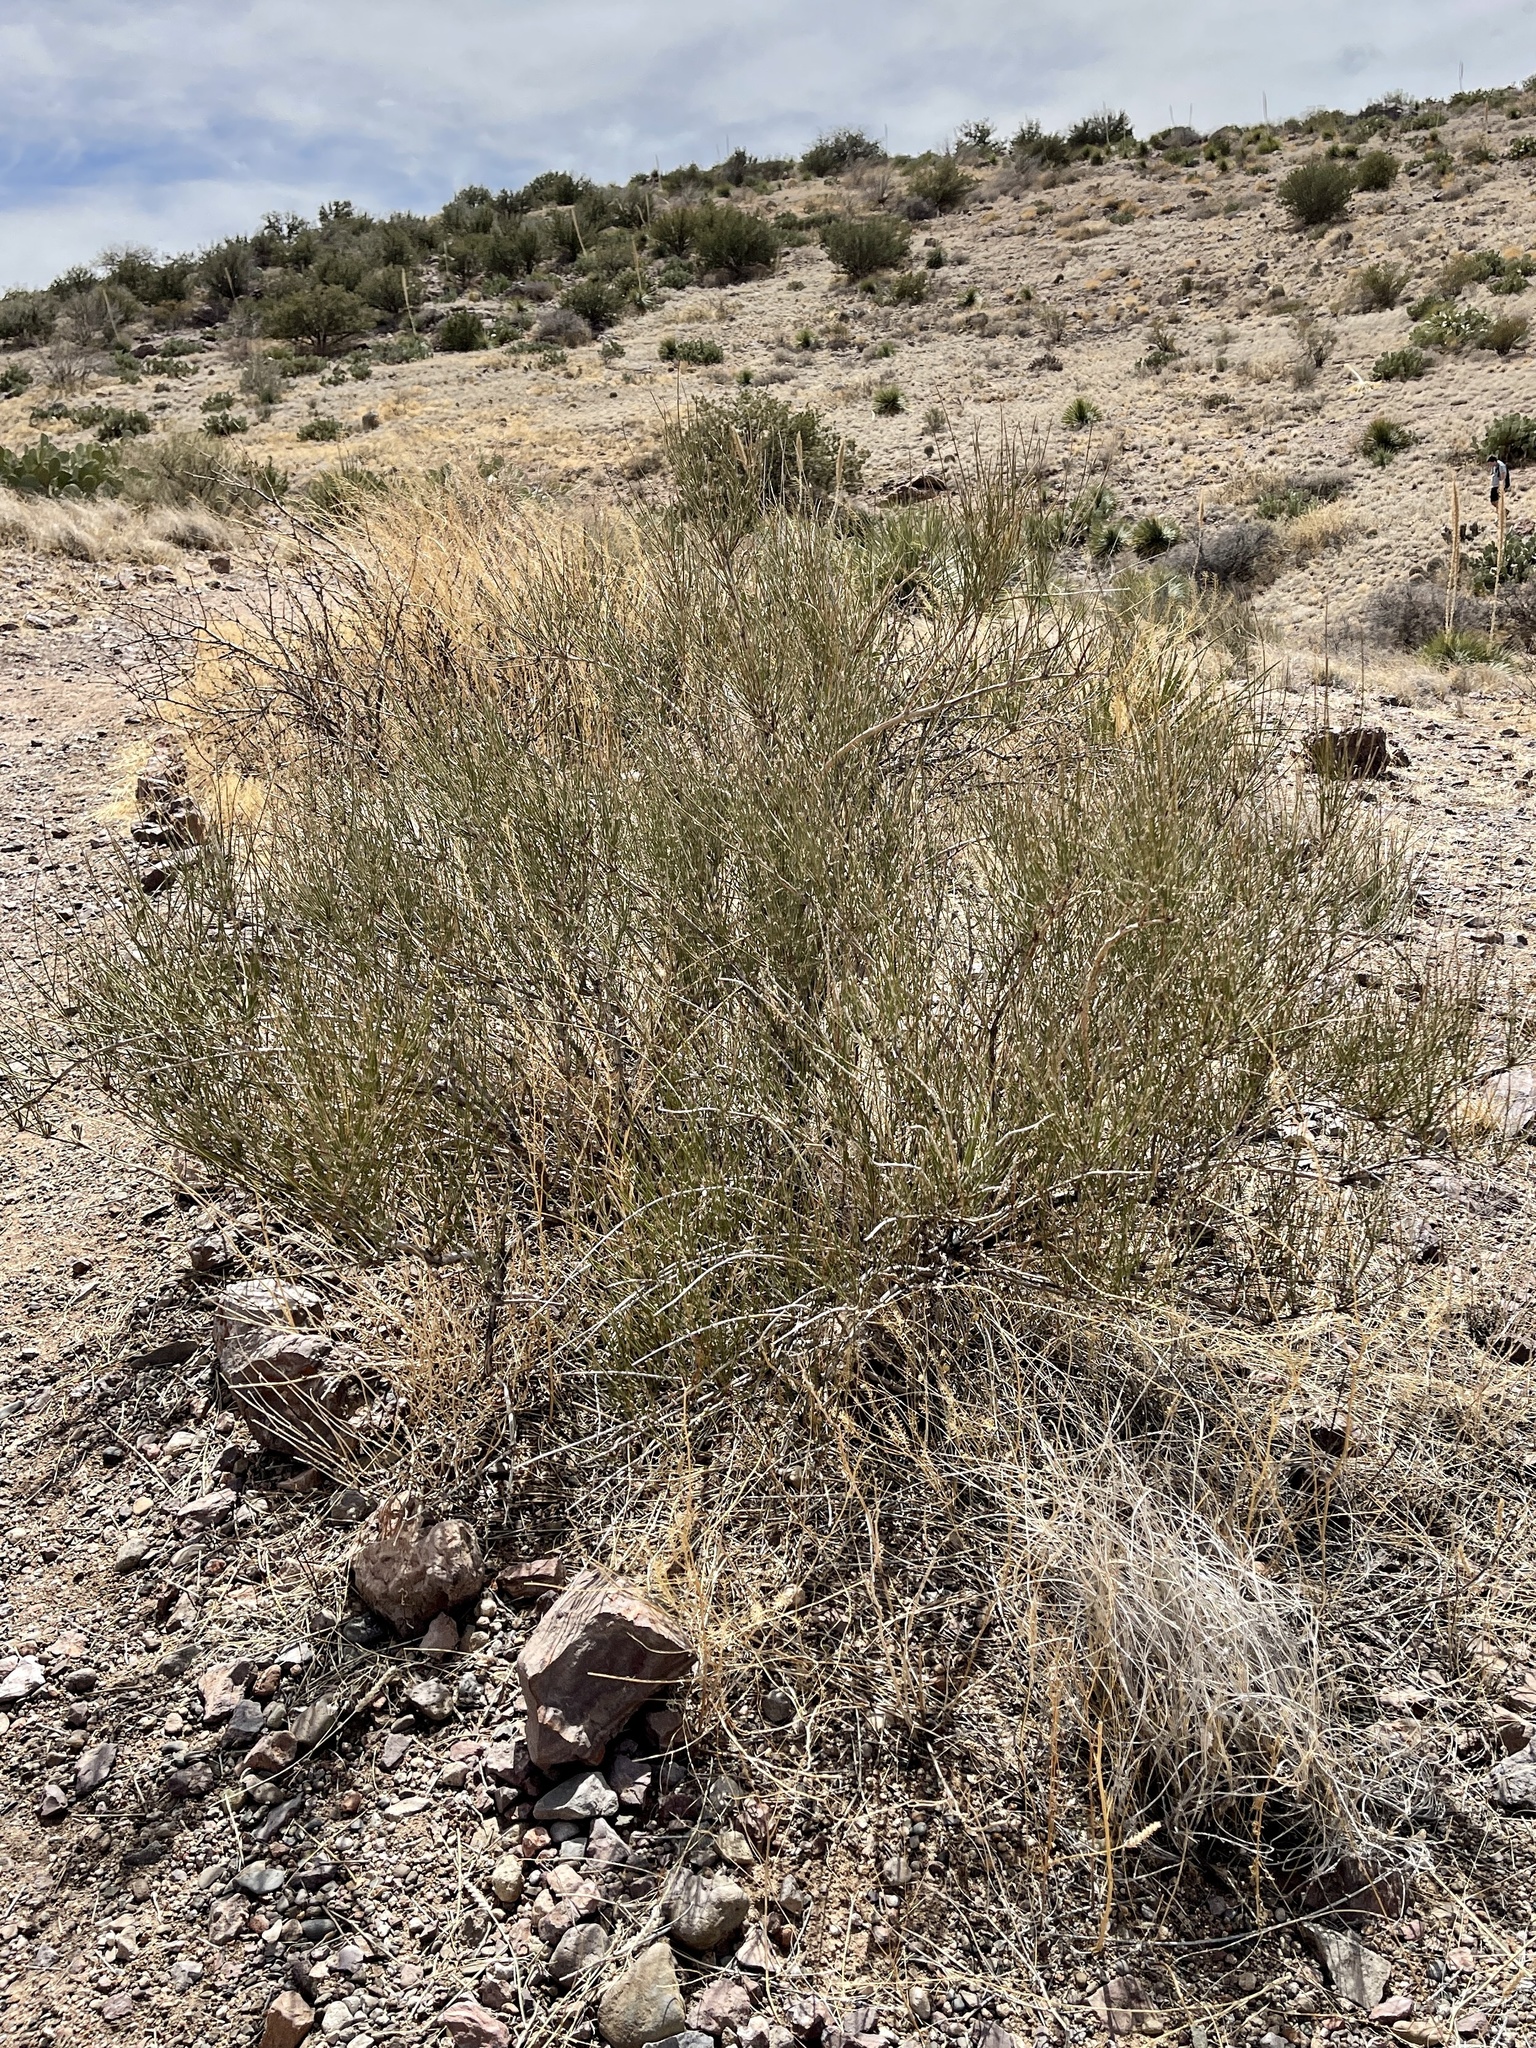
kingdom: Plantae
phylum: Tracheophyta
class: Gnetopsida
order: Ephedrales
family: Ephedraceae
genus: Ephedra
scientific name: Ephedra trifurca
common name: Mexican-tea
